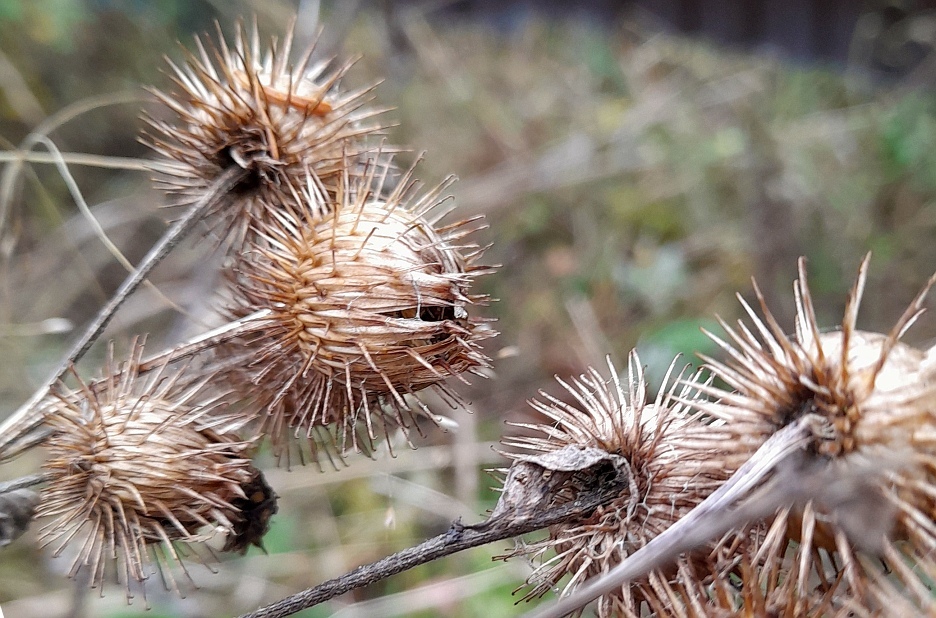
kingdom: Plantae
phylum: Tracheophyta
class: Magnoliopsida
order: Asterales
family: Asteraceae
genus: Arctium
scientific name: Arctium lappa
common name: Greater burdock
